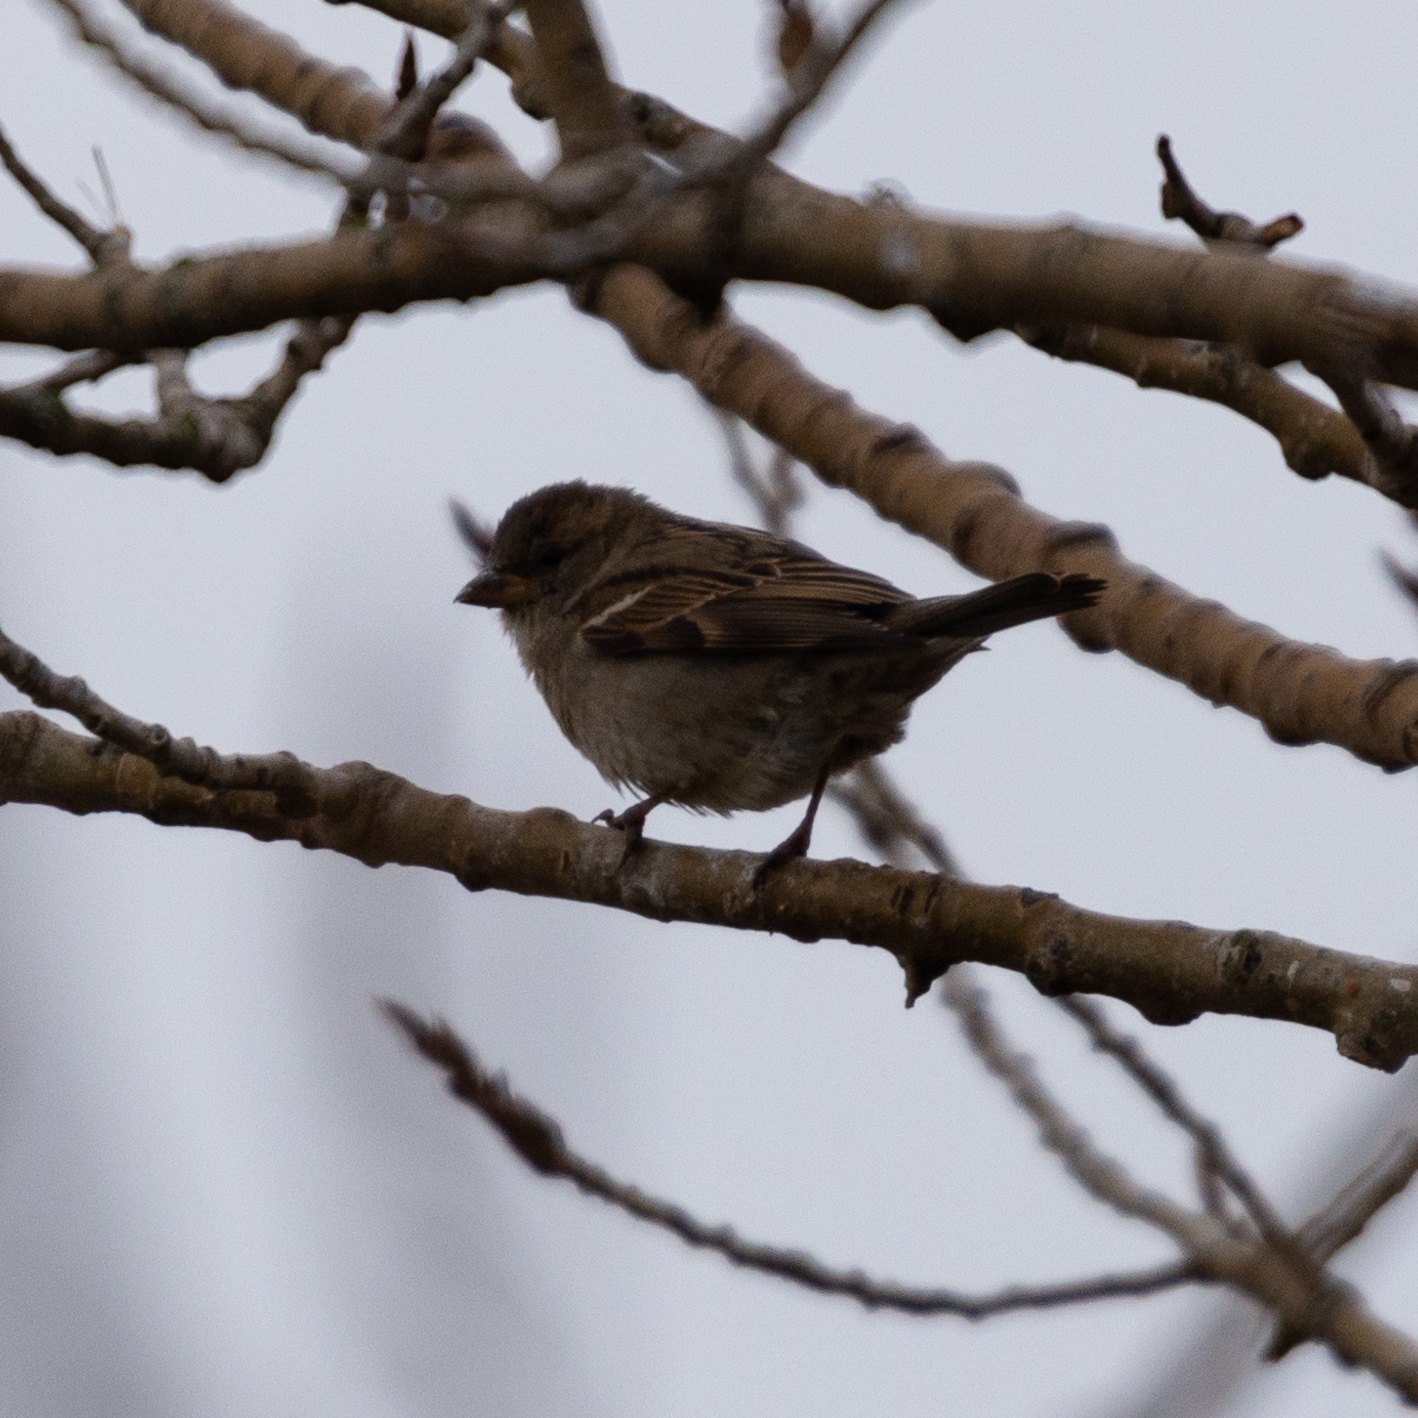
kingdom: Animalia
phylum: Chordata
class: Aves
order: Passeriformes
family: Passeridae
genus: Passer
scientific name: Passer domesticus
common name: House sparrow
